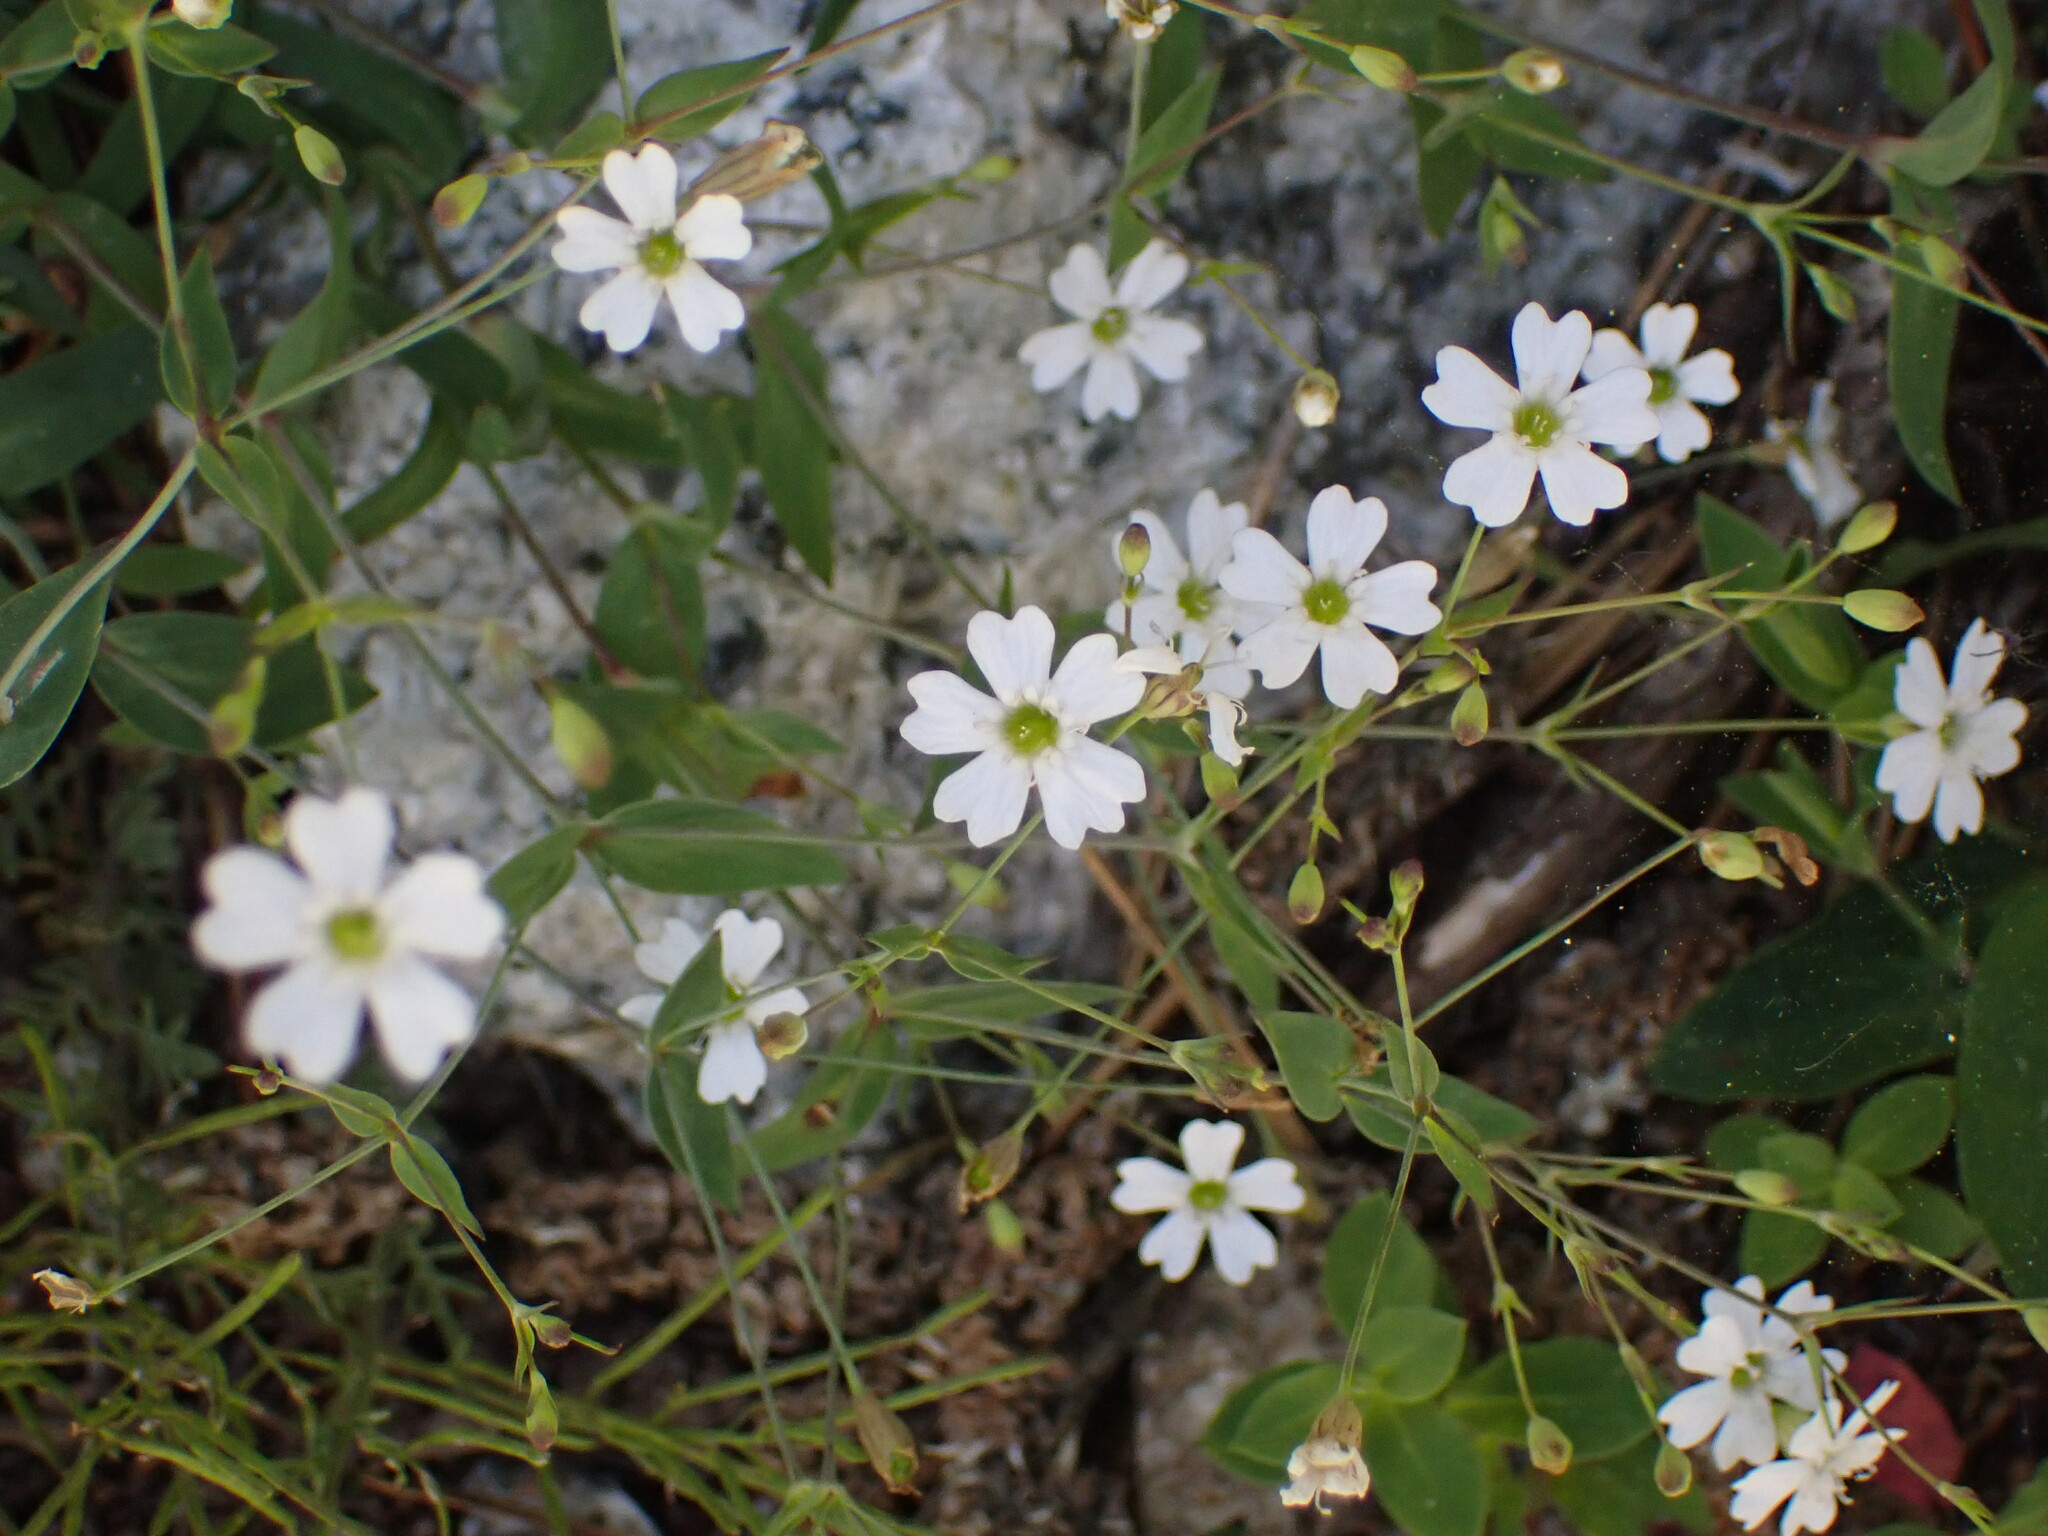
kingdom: Plantae
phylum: Tracheophyta
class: Magnoliopsida
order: Caryophyllales
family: Caryophyllaceae
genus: Atocion
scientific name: Atocion rupestre
